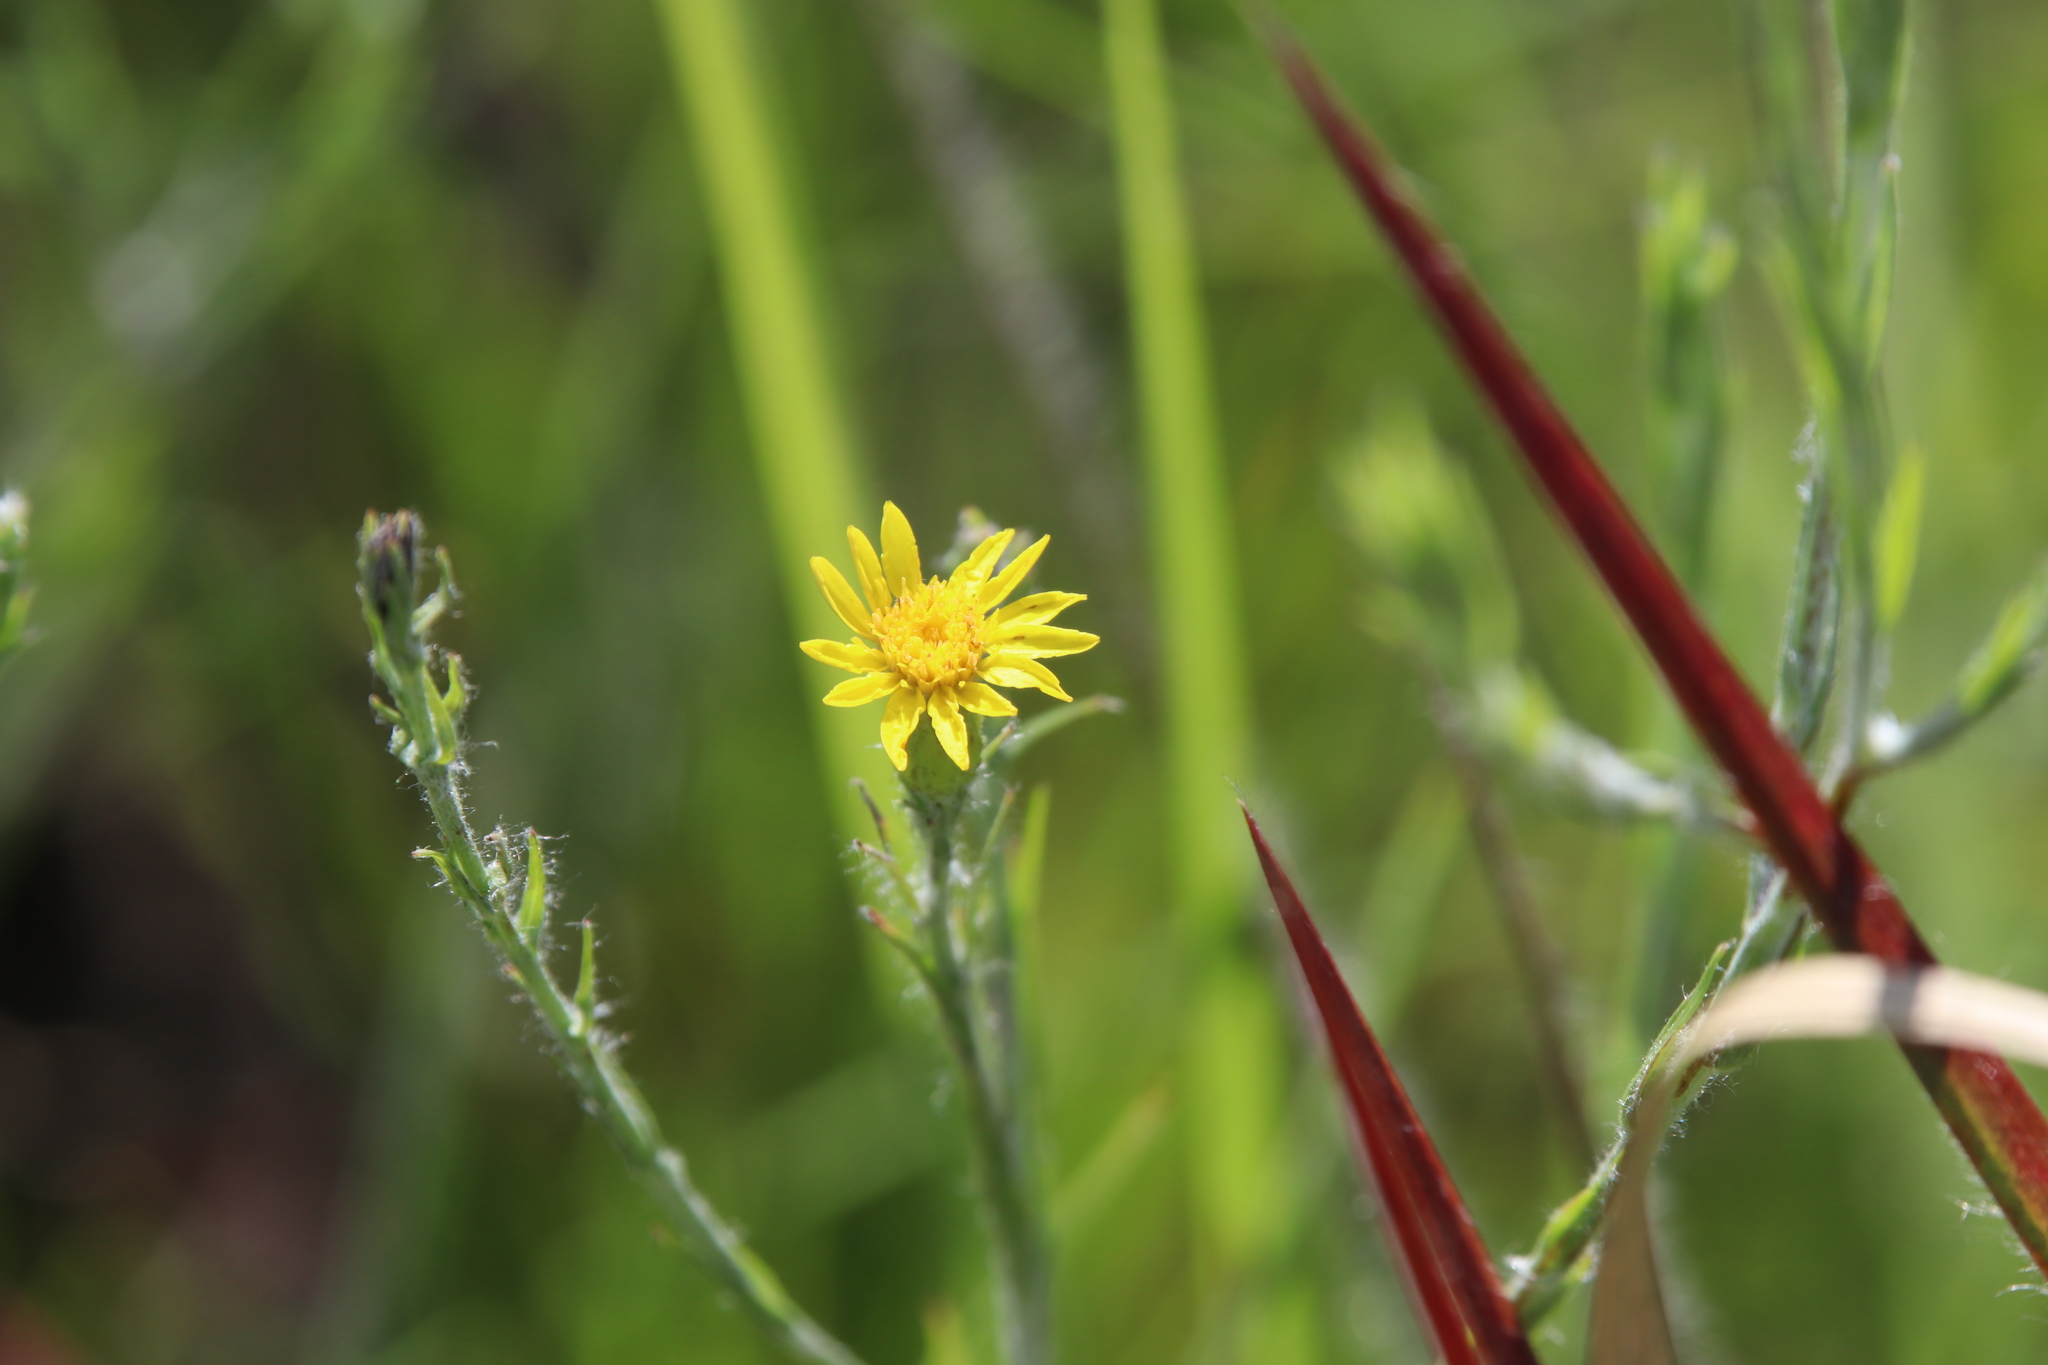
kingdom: Plantae
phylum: Tracheophyta
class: Magnoliopsida
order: Asterales
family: Asteraceae
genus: Pityopsis
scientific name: Pityopsis graminifolia
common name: Grass-leaf golden-aster
